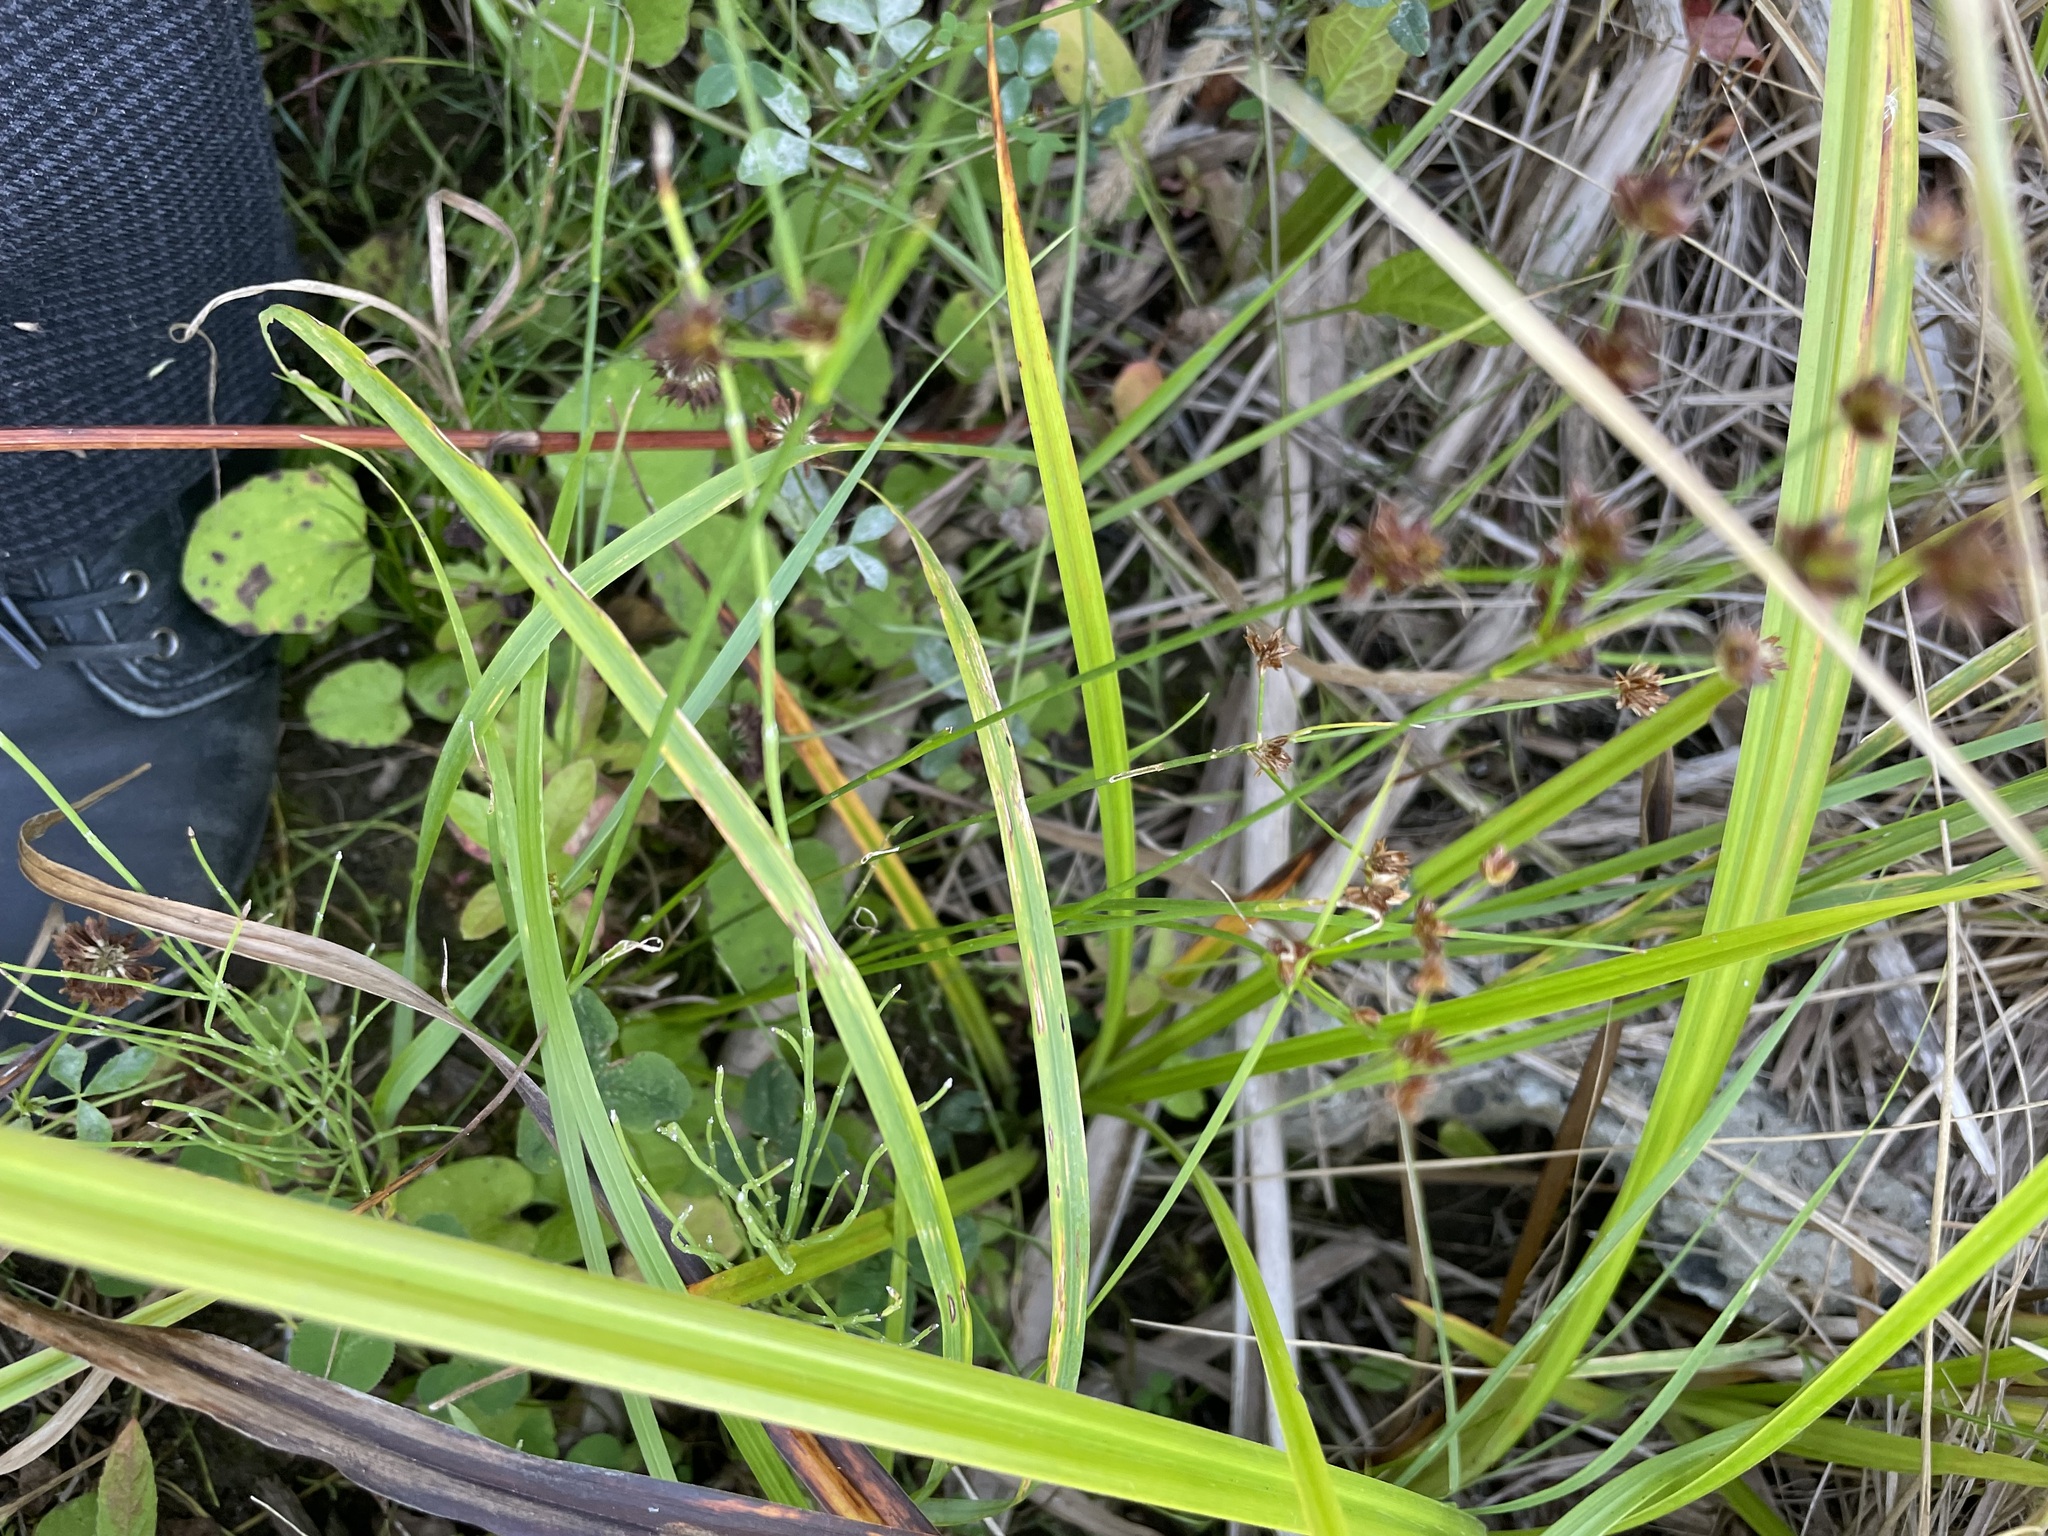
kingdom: Plantae
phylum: Tracheophyta
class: Liliopsida
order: Poales
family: Juncaceae
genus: Juncus
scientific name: Juncus articulatus
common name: Jointed rush
